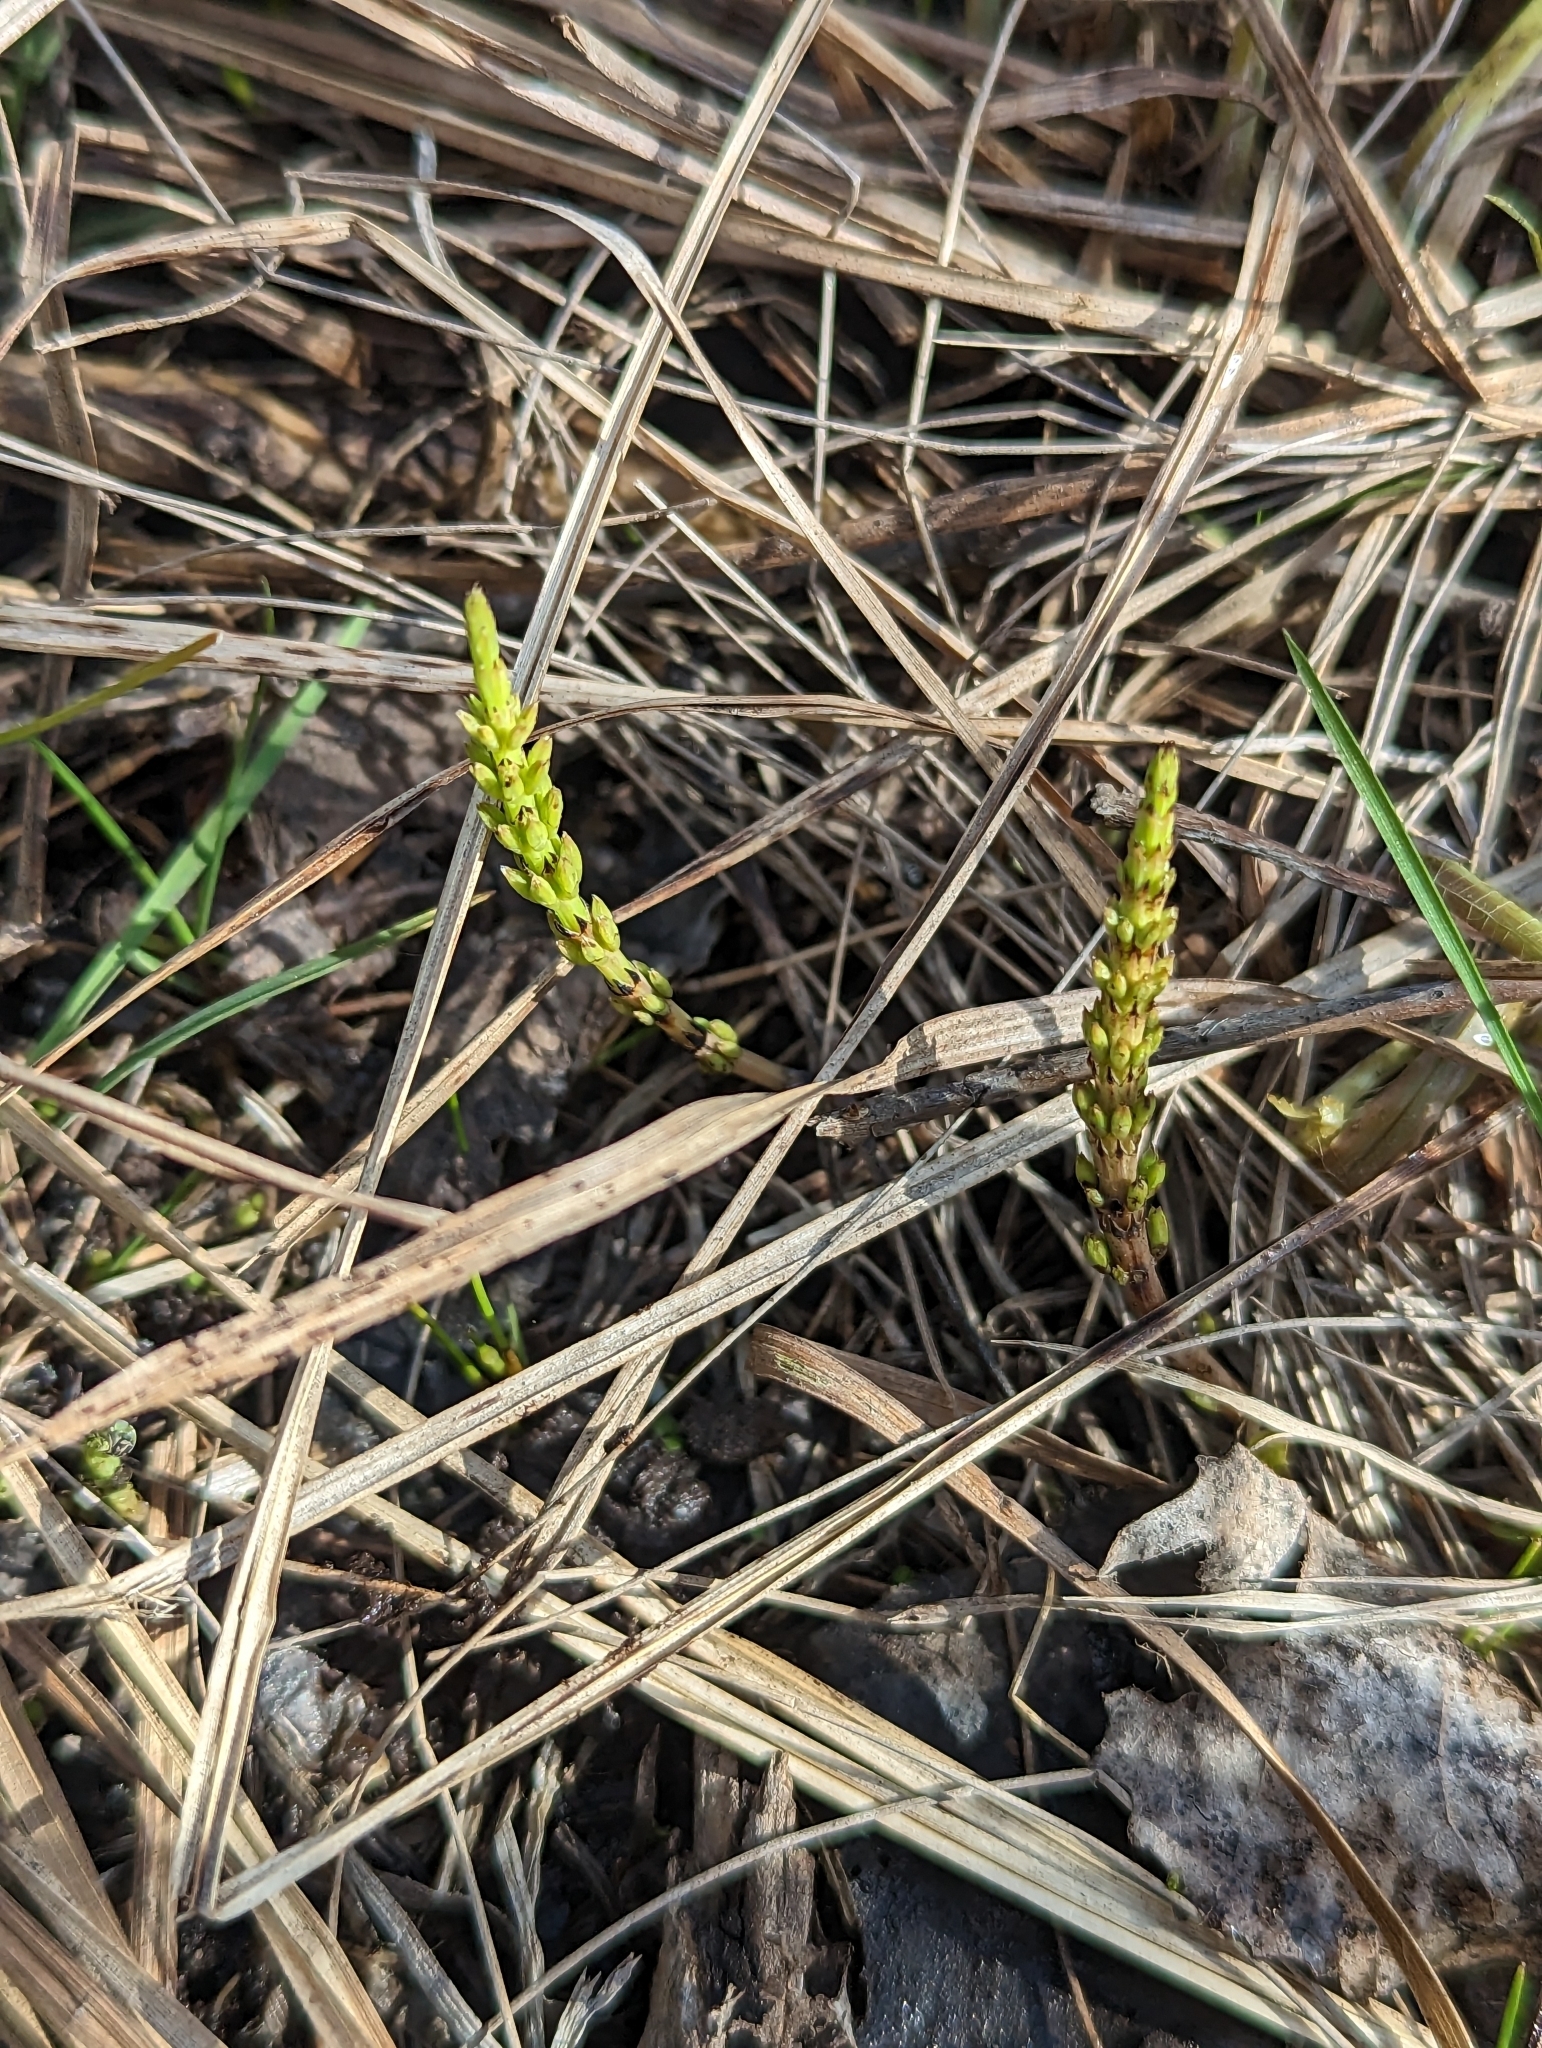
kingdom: Plantae
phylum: Tracheophyta
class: Polypodiopsida
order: Equisetales
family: Equisetaceae
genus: Equisetum
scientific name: Equisetum arvense
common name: Field horsetail
